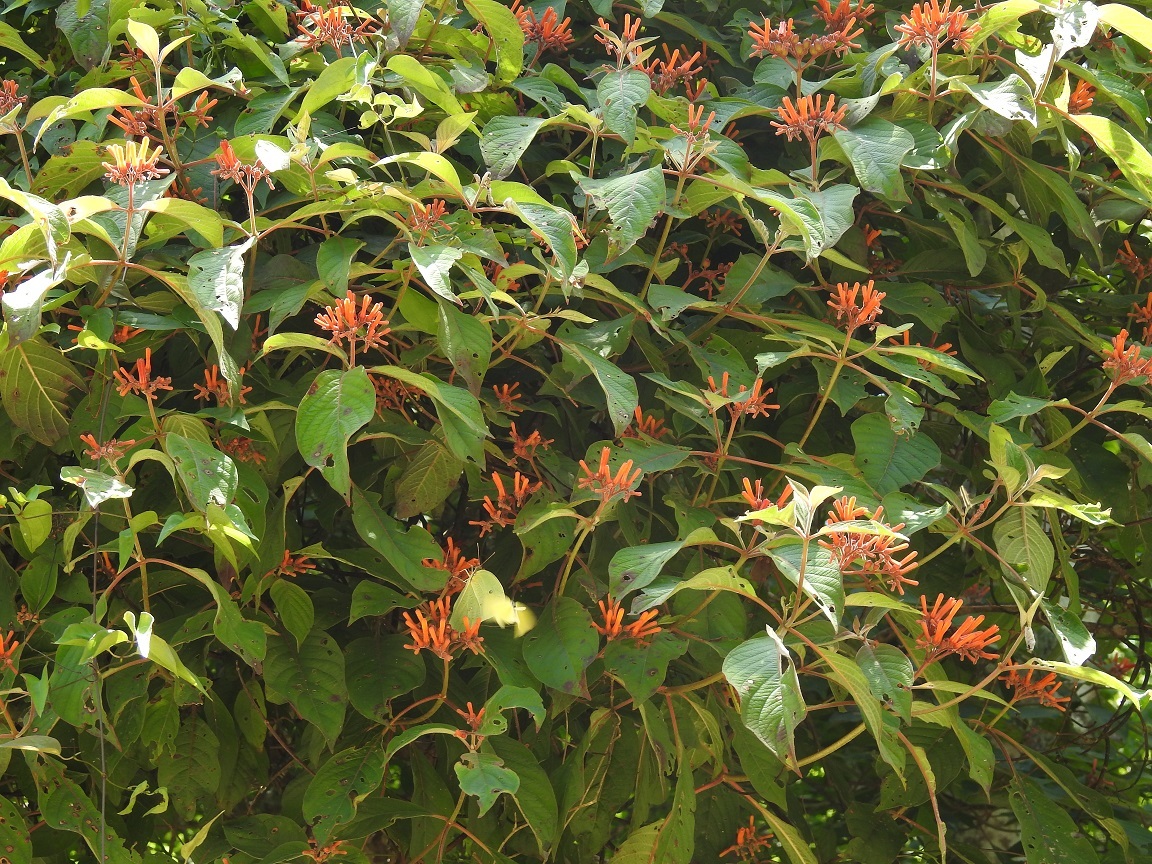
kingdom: Plantae
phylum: Tracheophyta
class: Magnoliopsida
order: Gentianales
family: Rubiaceae
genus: Hamelia
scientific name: Hamelia patens
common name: Redhead
